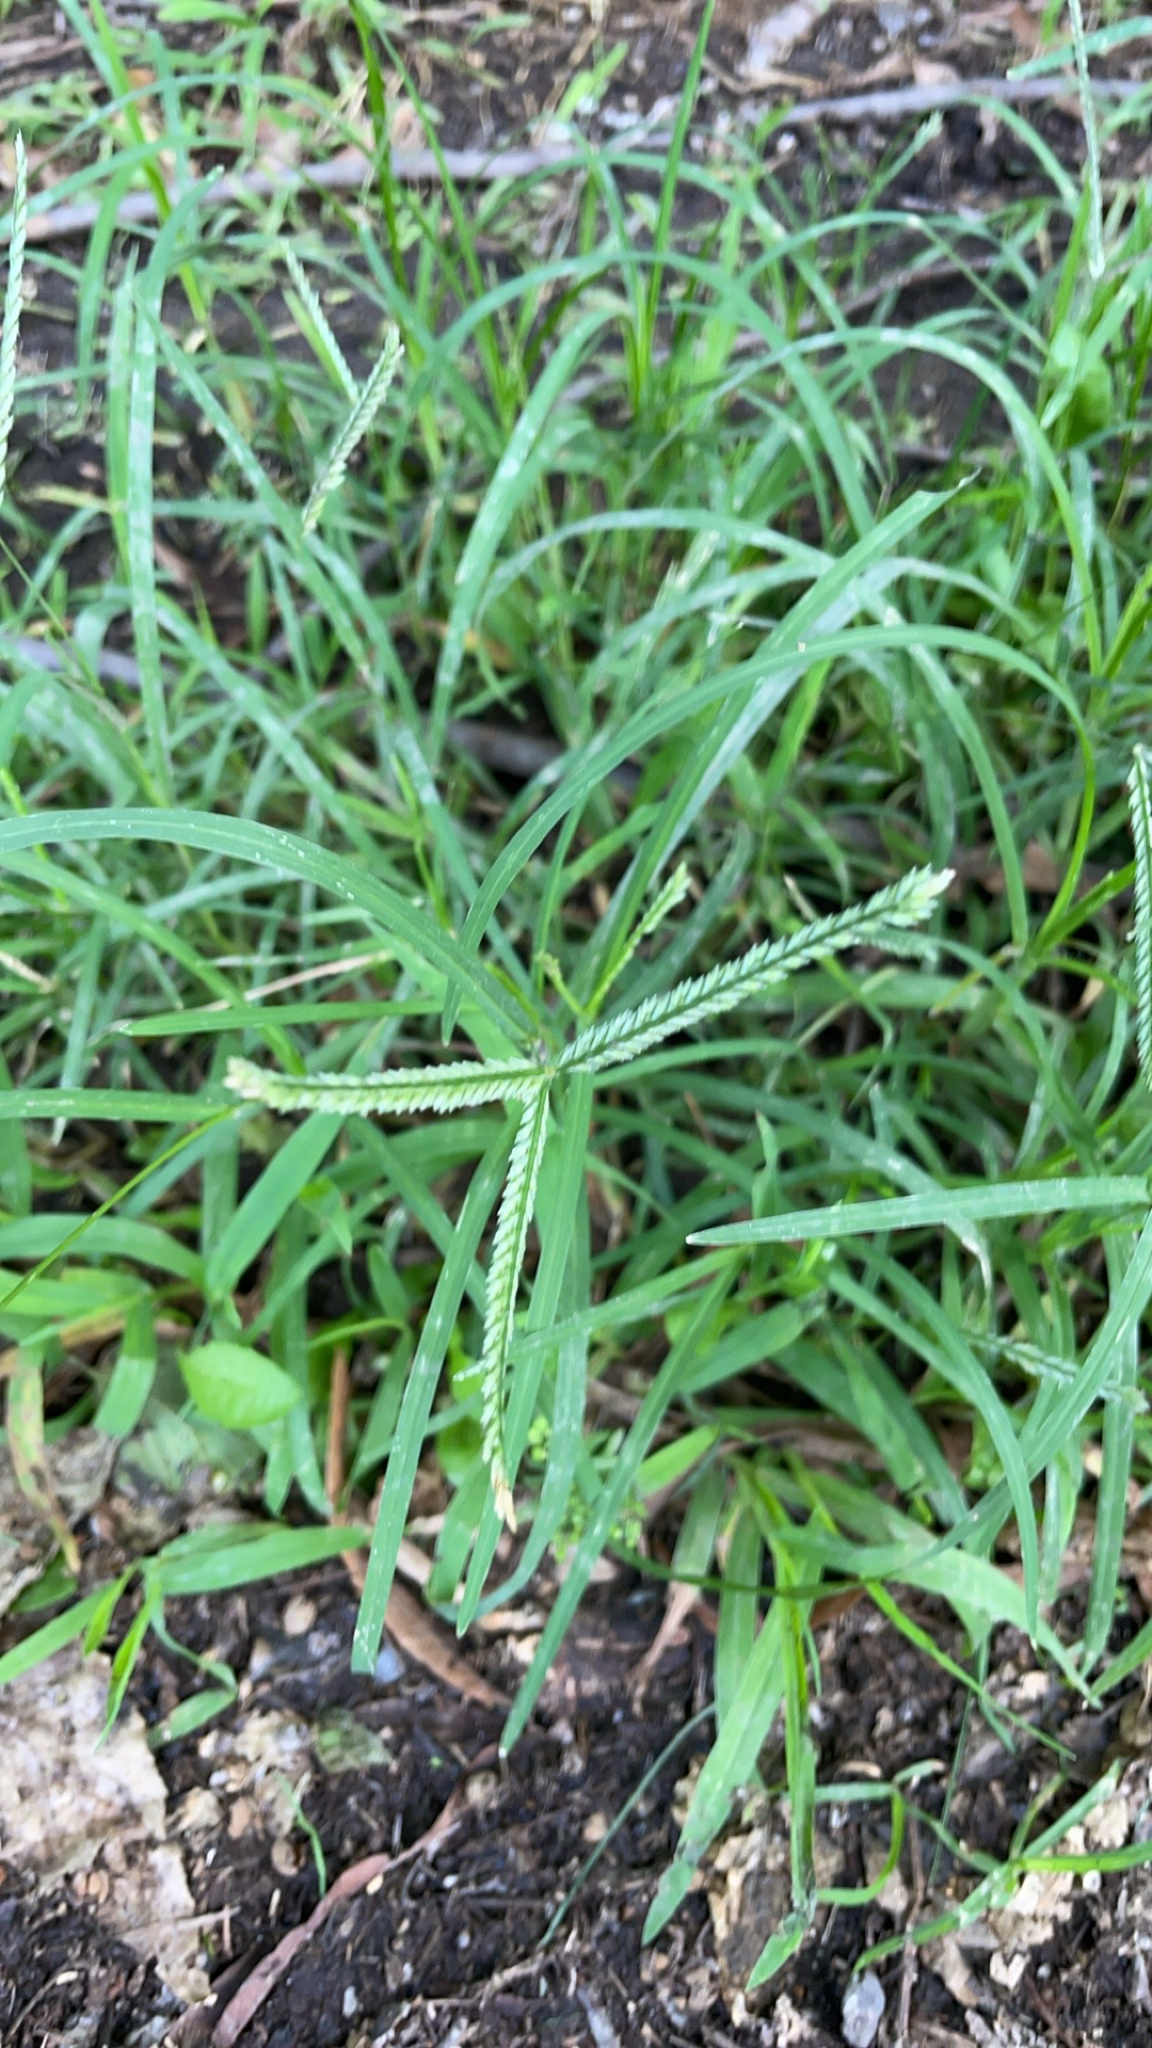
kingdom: Plantae
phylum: Tracheophyta
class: Liliopsida
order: Poales
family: Poaceae
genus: Eleusine
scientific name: Eleusine indica
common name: Yard-grass
